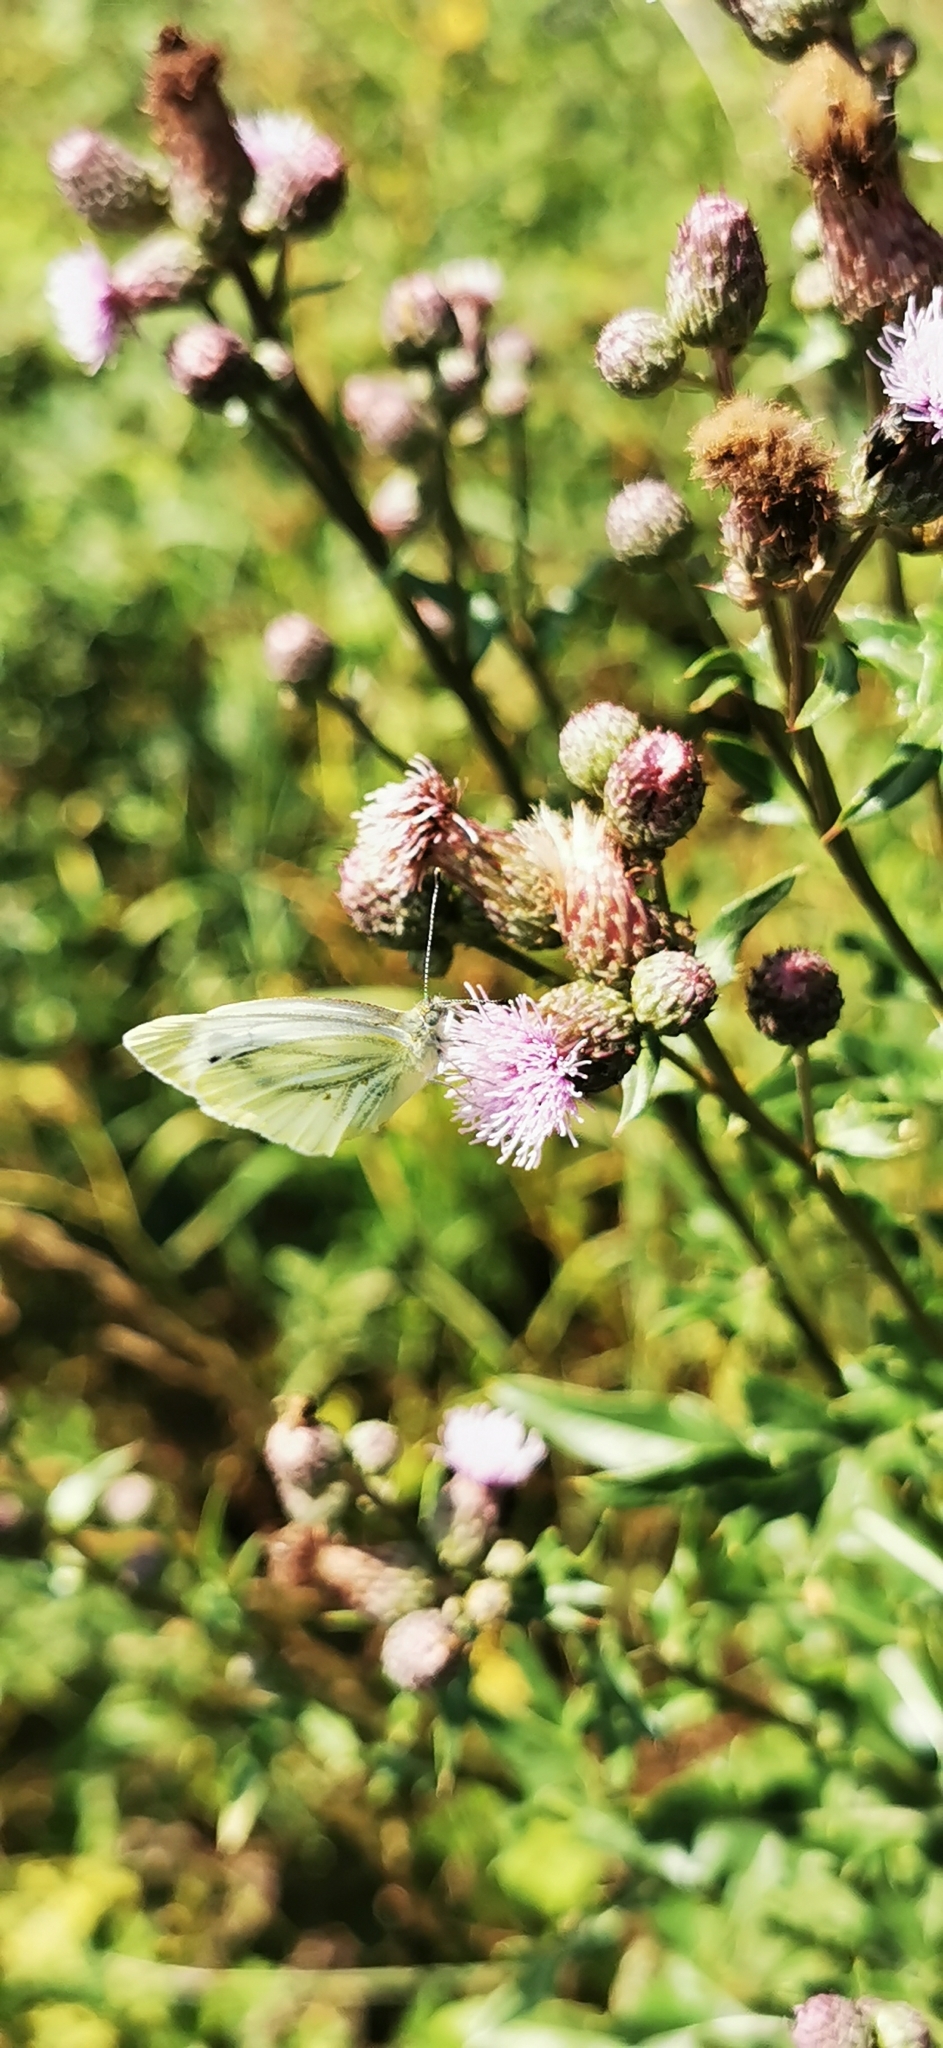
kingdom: Animalia
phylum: Arthropoda
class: Insecta
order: Lepidoptera
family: Pieridae
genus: Pieris
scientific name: Pieris napi
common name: Green-veined white
